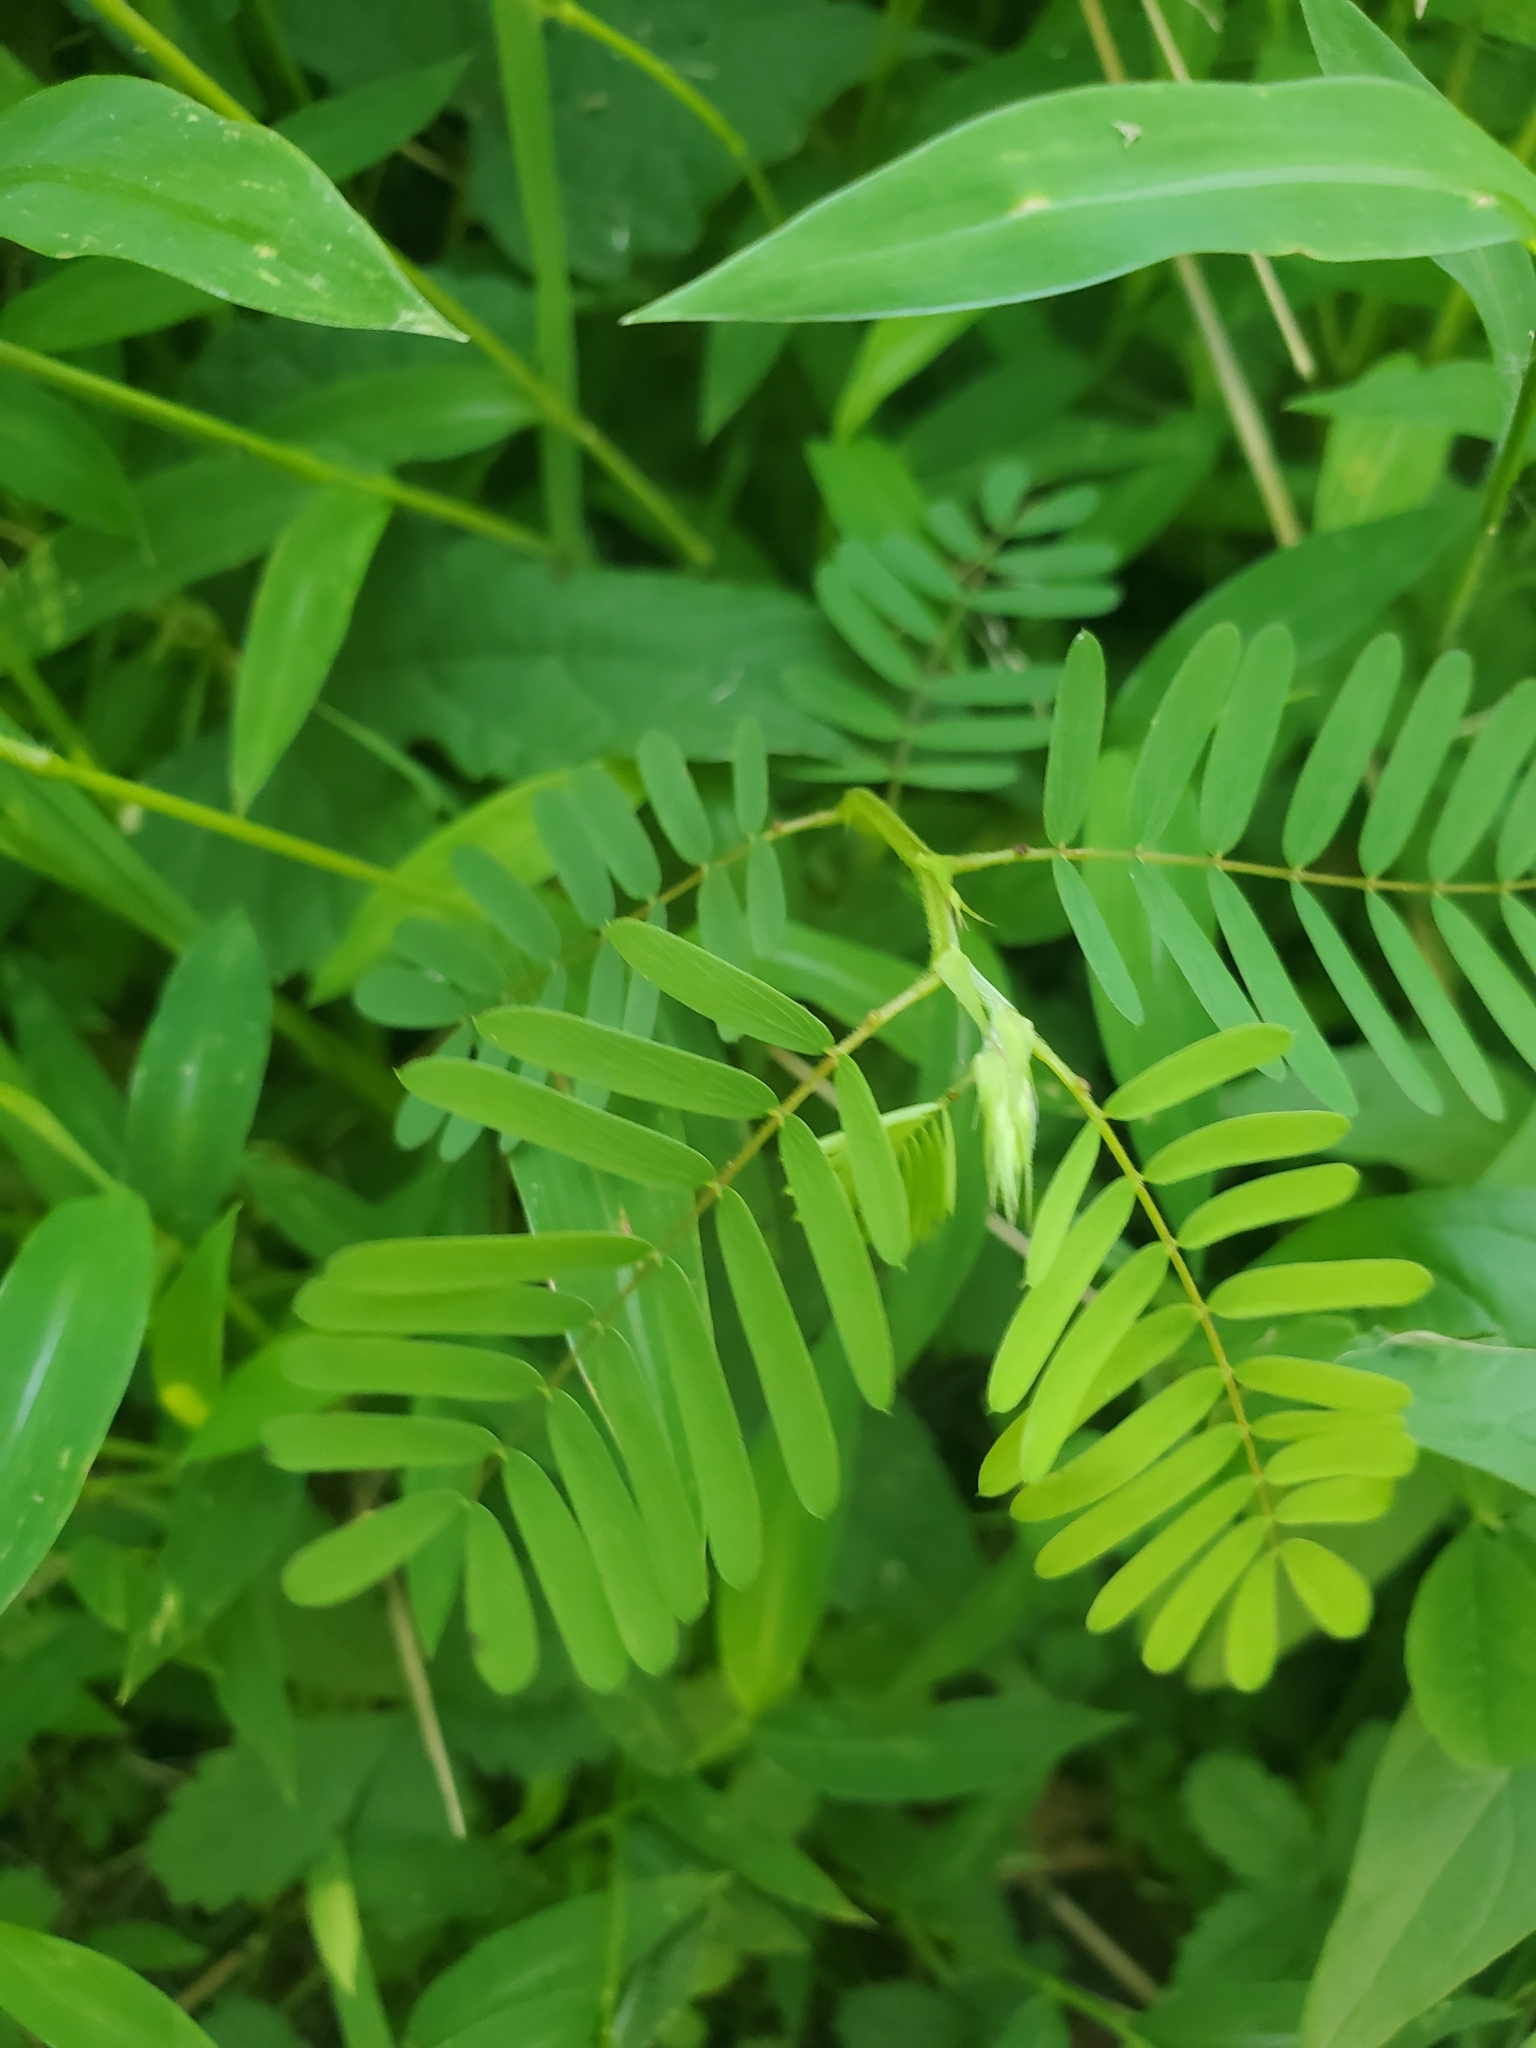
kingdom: Plantae
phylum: Tracheophyta
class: Magnoliopsida
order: Fabales
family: Fabaceae
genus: Chamaecrista
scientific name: Chamaecrista fasciculata
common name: Golden cassia
